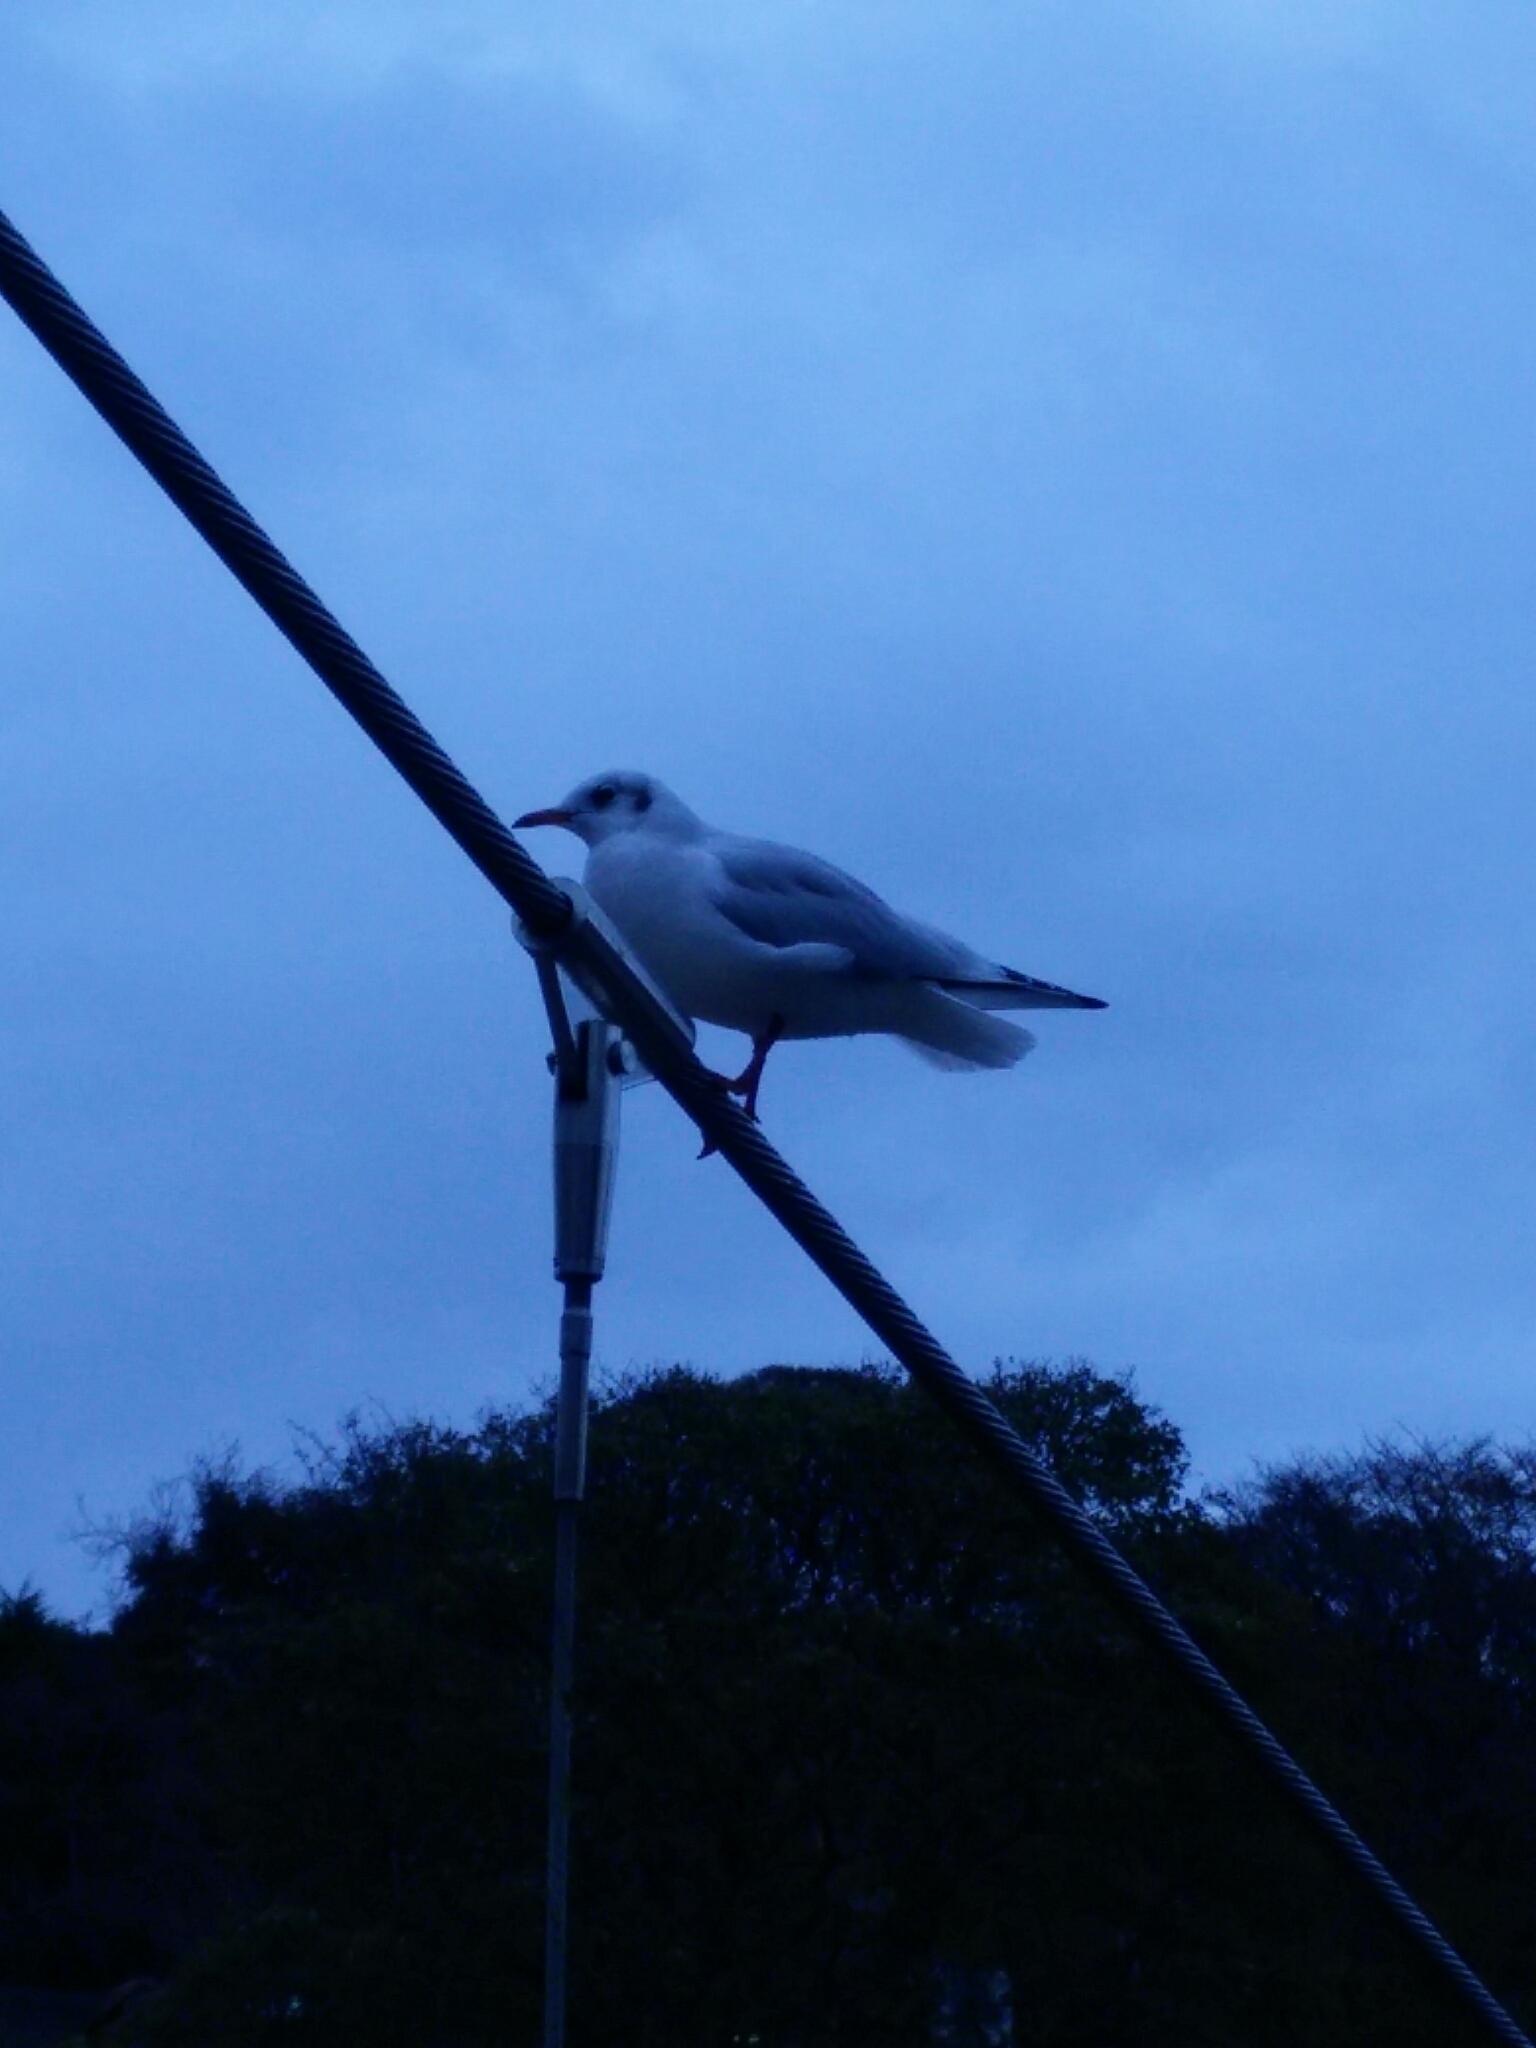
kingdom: Animalia
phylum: Chordata
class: Aves
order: Charadriiformes
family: Laridae
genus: Chroicocephalus
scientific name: Chroicocephalus ridibundus
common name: Black-headed gull
